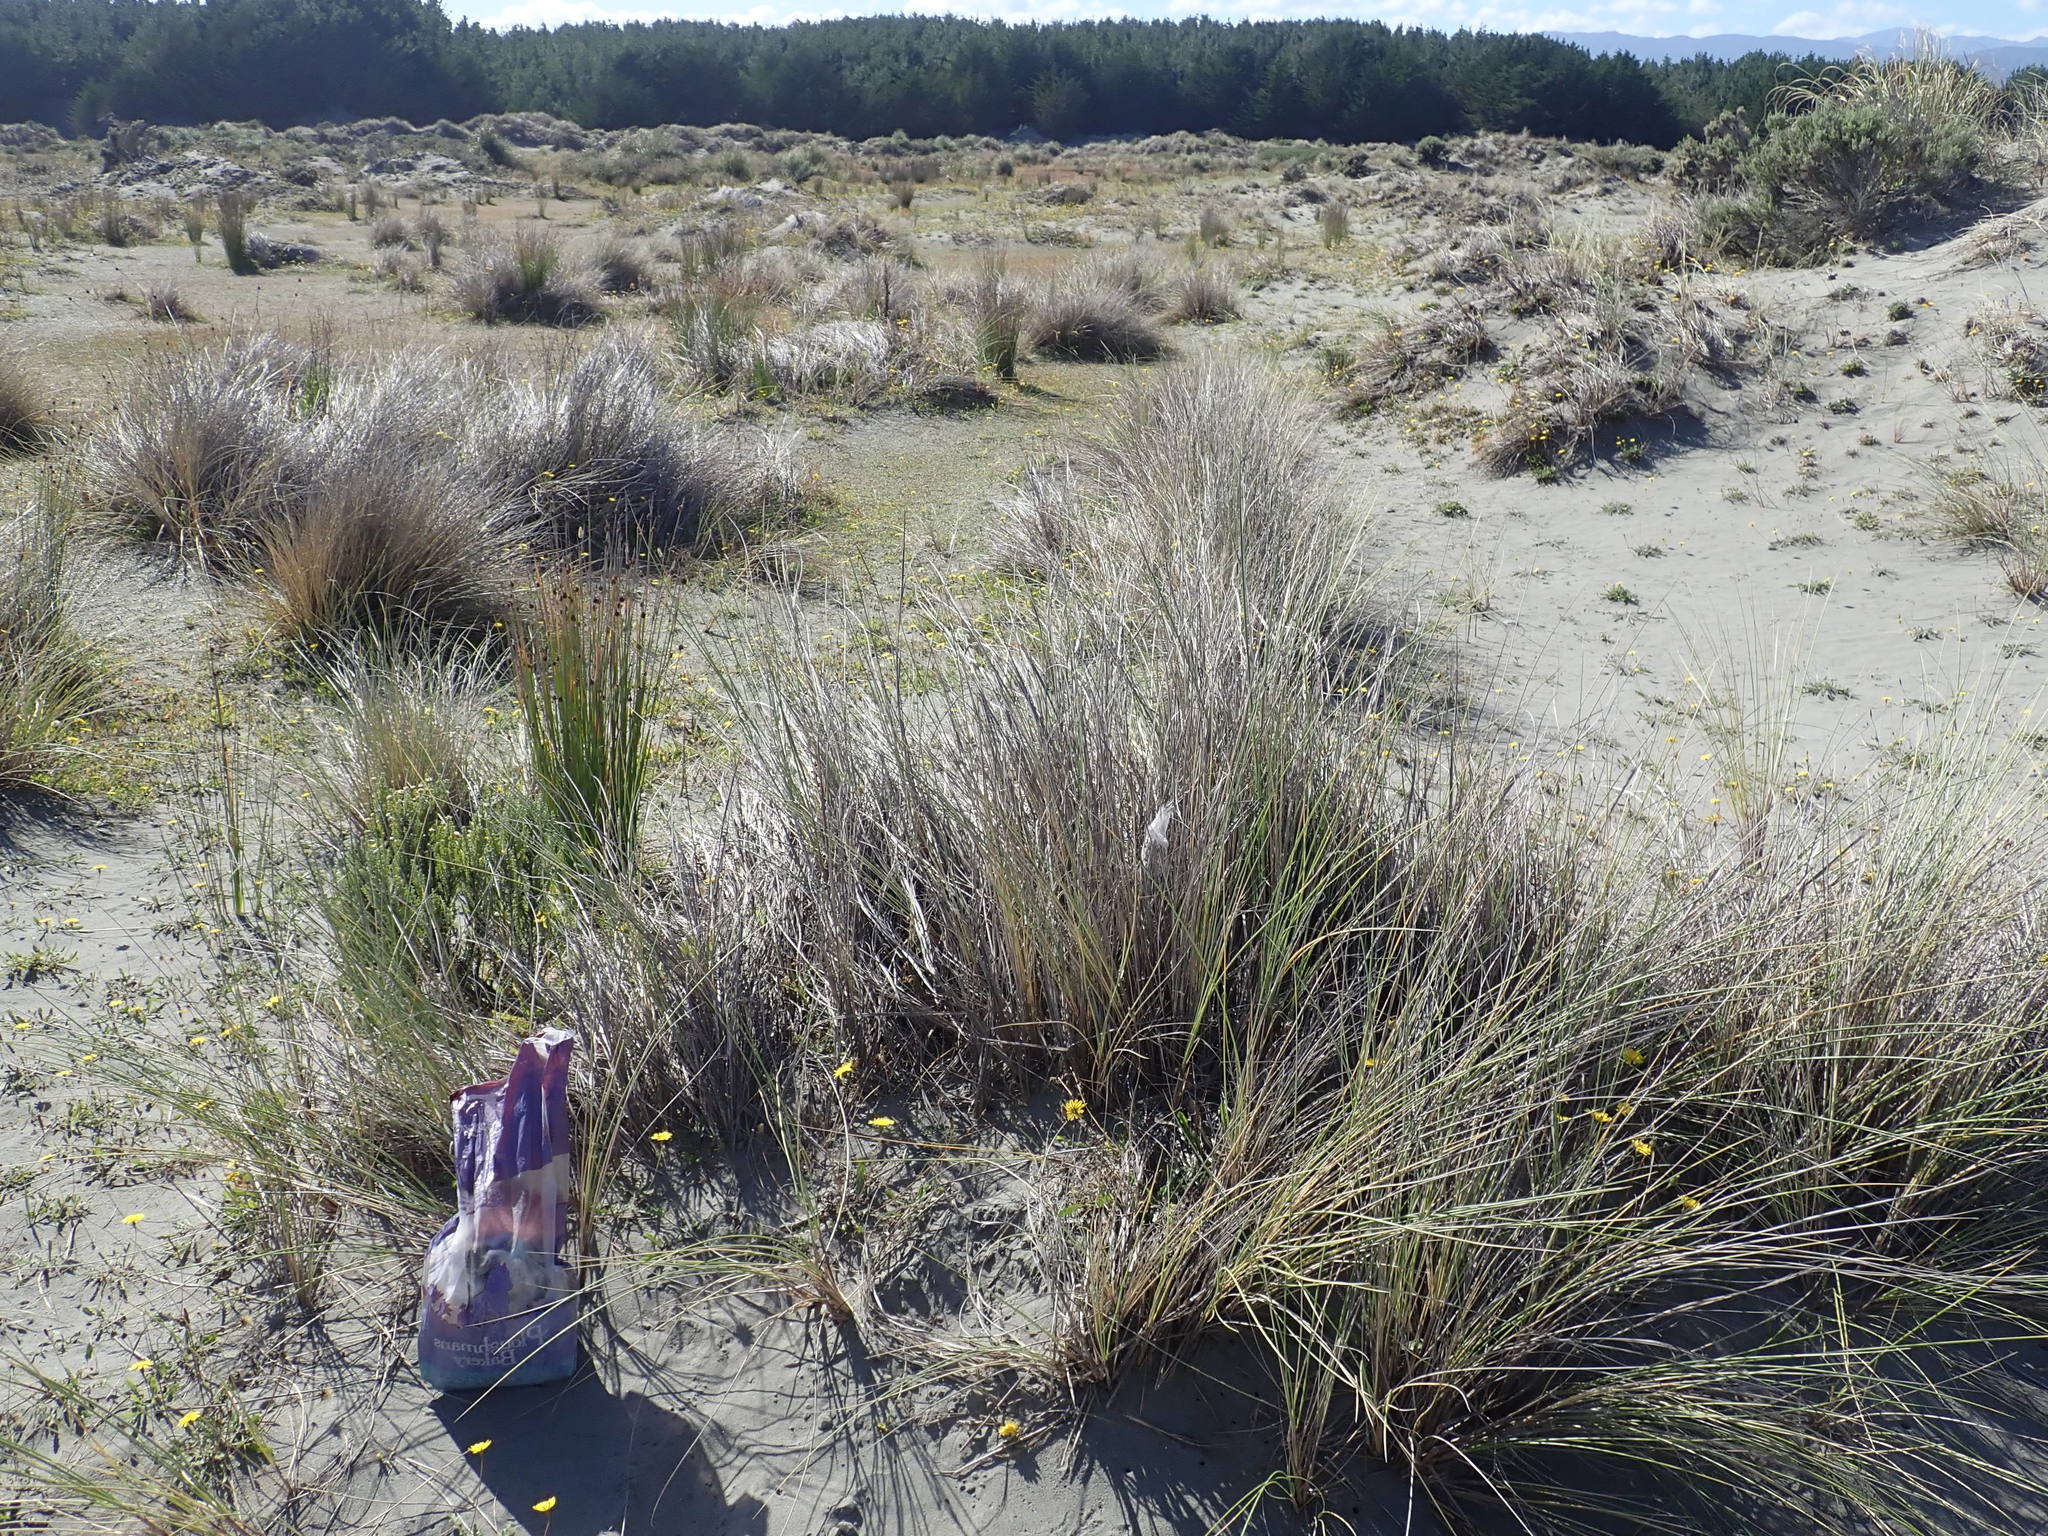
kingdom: Animalia
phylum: Arthropoda
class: Arachnida
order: Araneae
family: Pisauridae
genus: Dolomedes
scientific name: Dolomedes minor
